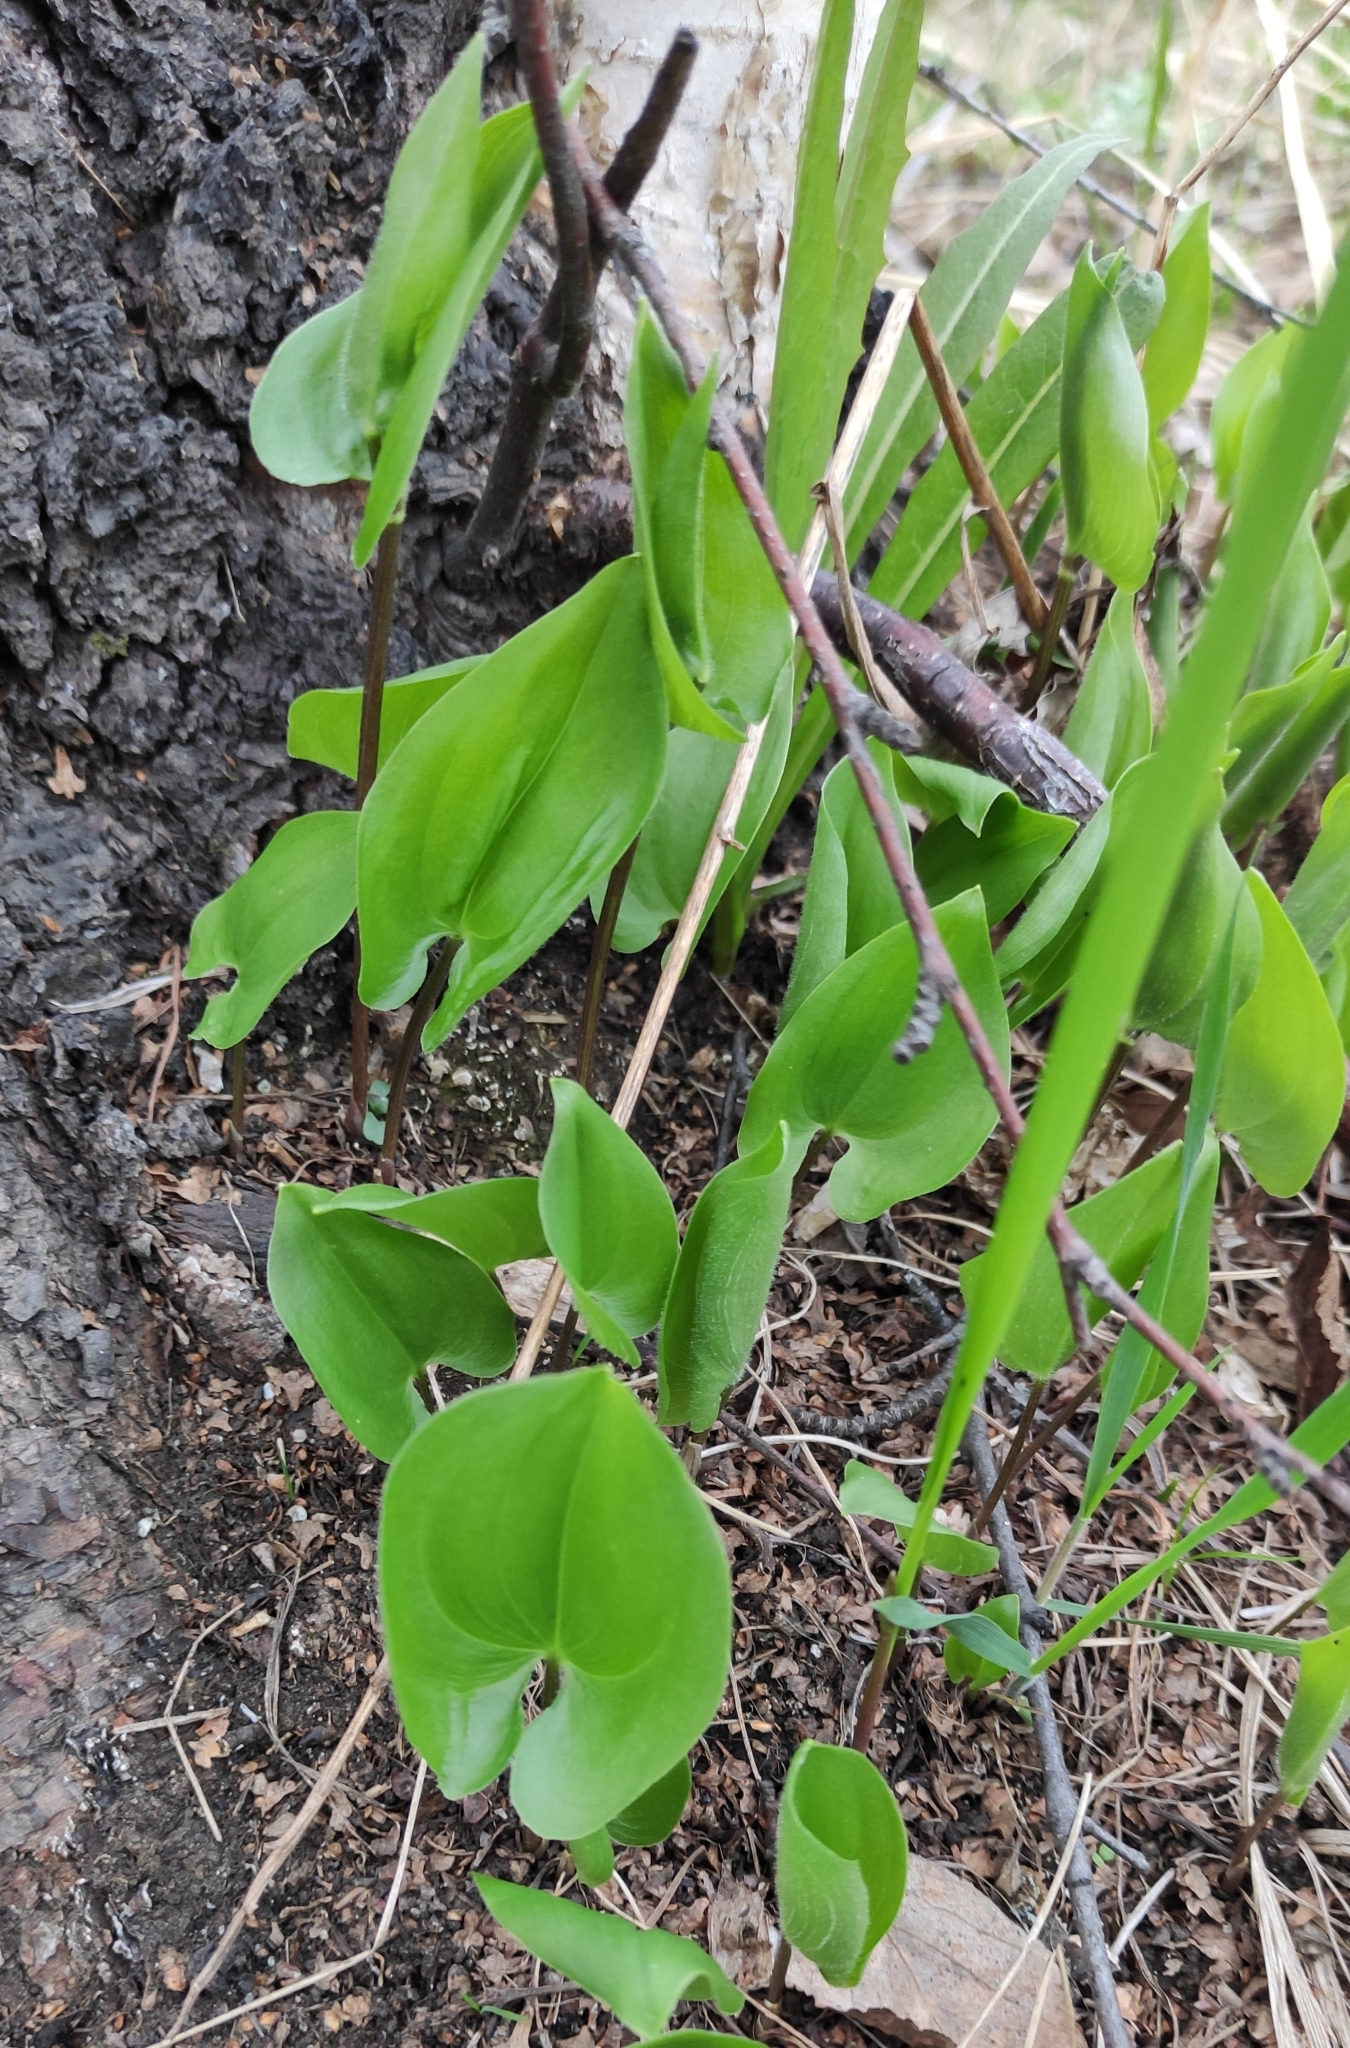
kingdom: Plantae
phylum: Tracheophyta
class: Liliopsida
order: Asparagales
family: Asparagaceae
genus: Maianthemum
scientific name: Maianthemum bifolium
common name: May lily
